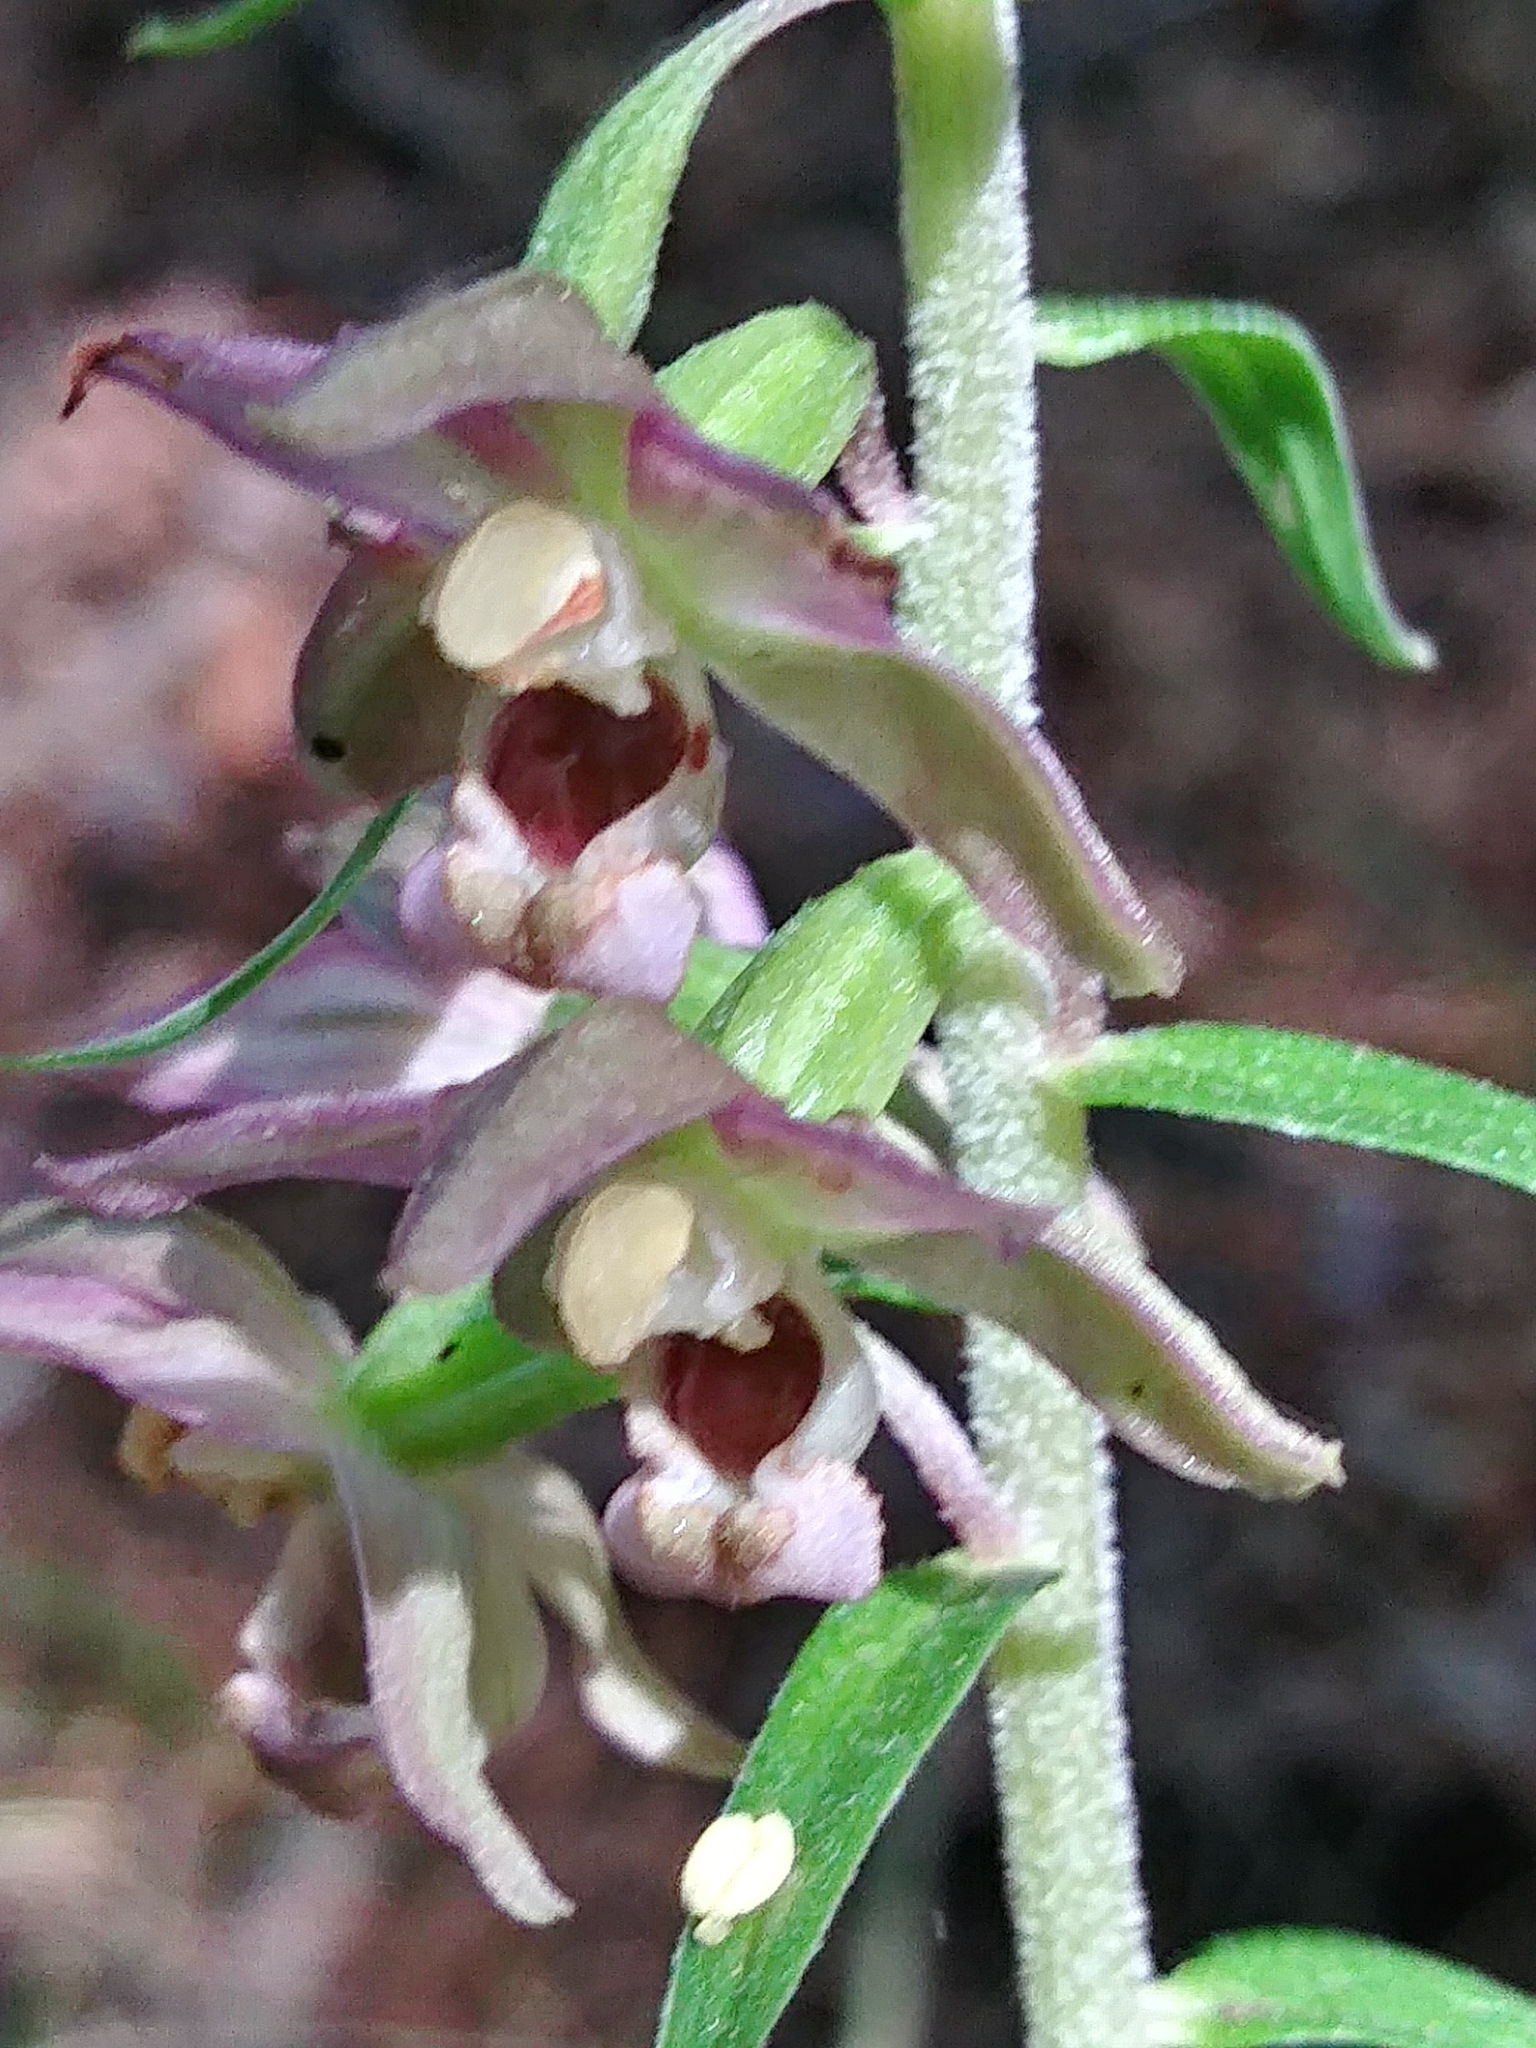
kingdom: Plantae
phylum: Tracheophyta
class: Liliopsida
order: Asparagales
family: Orchidaceae
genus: Epipactis
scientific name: Epipactis helleborine
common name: Broad-leaved helleborine
